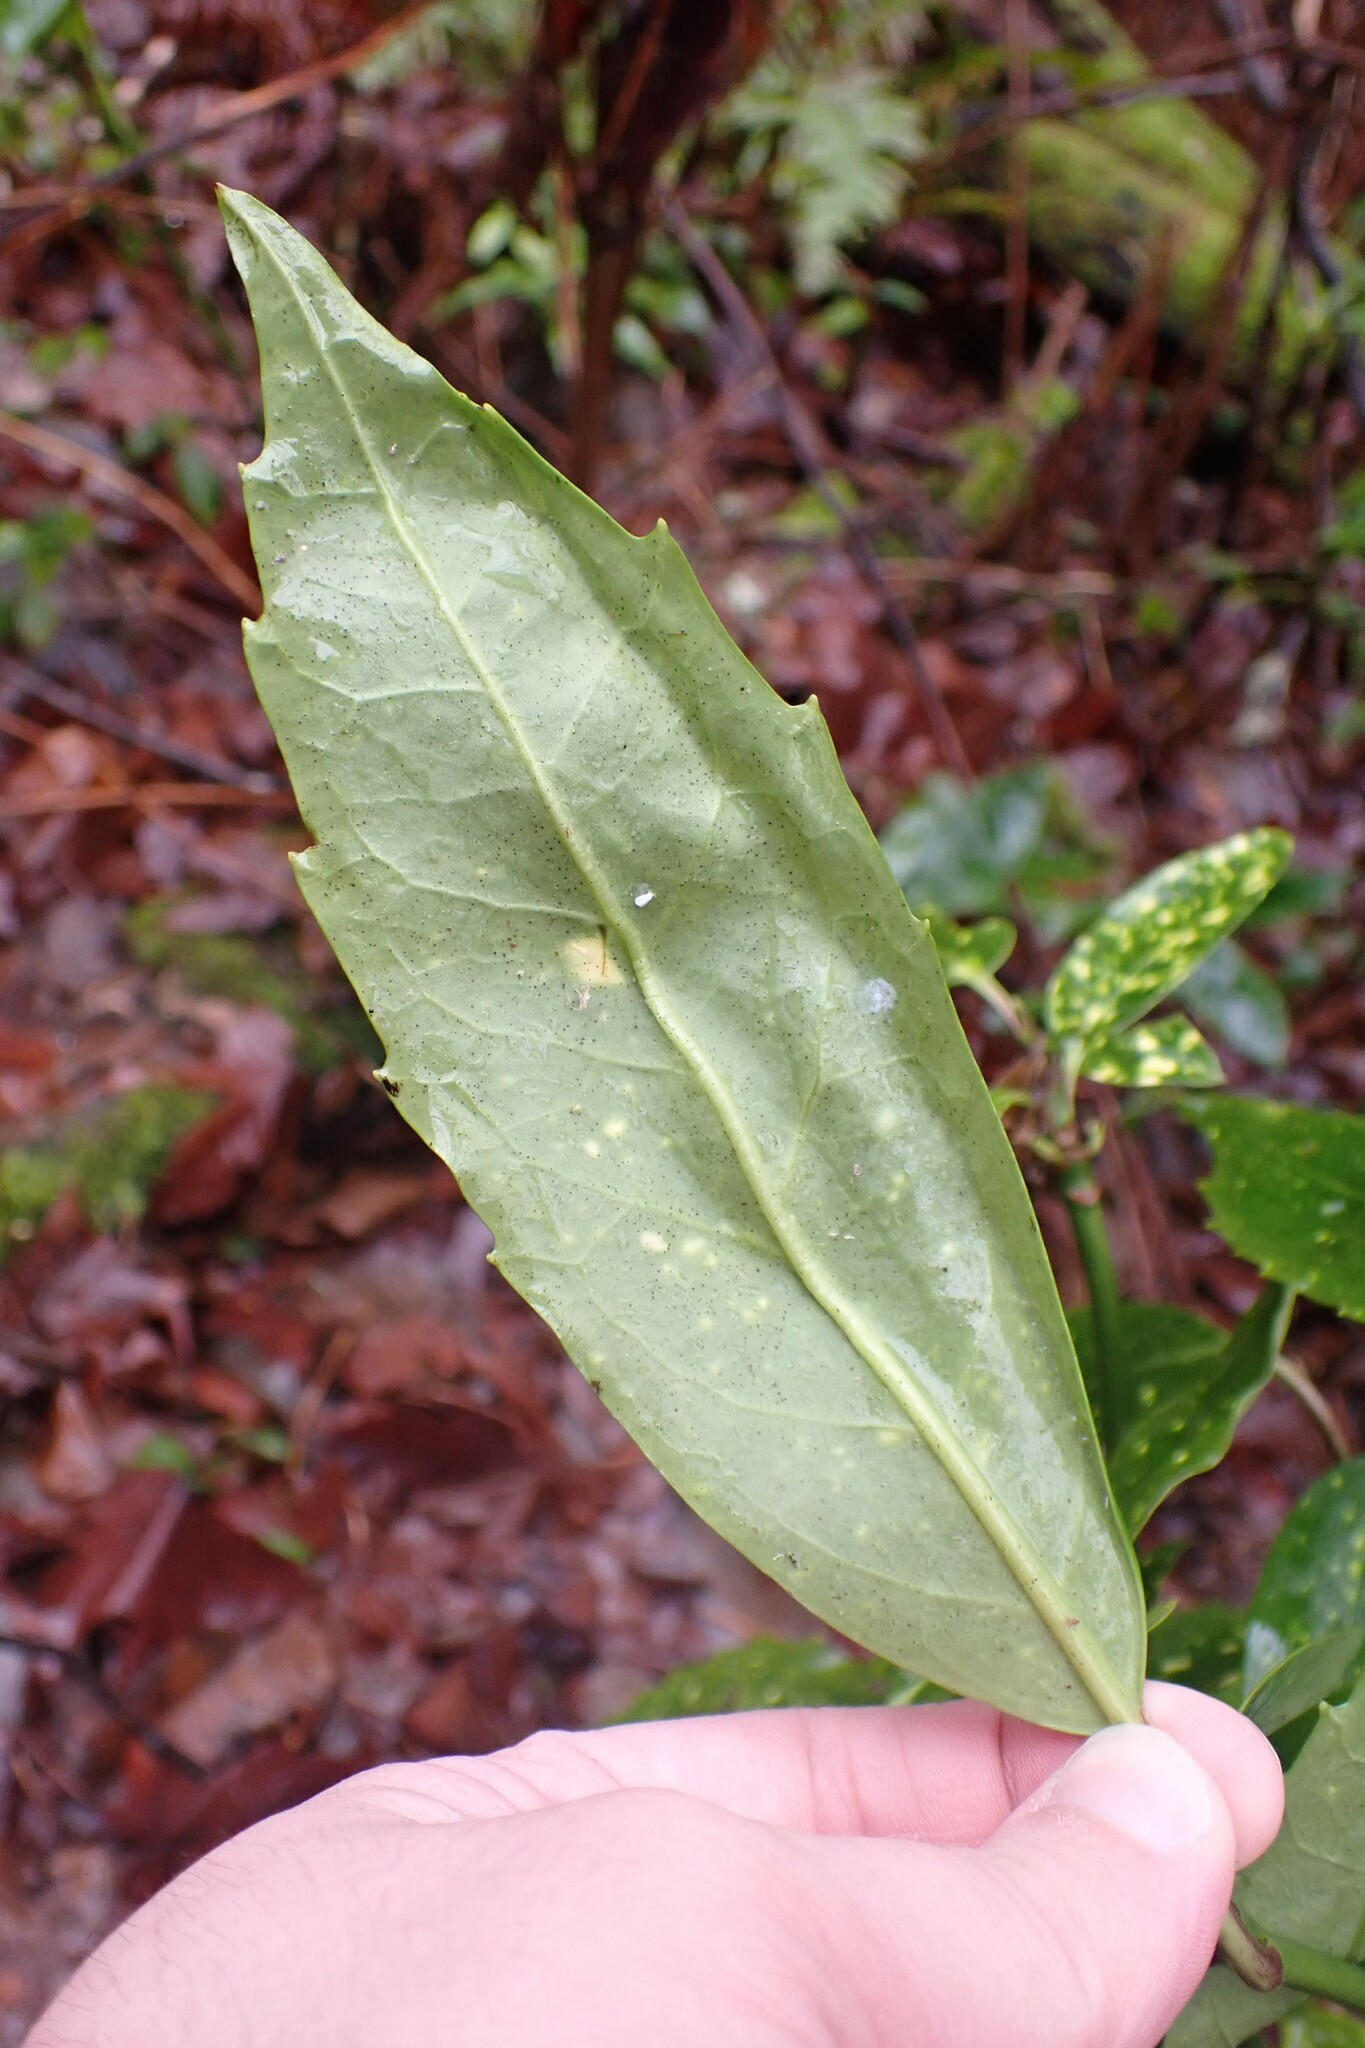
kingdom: Plantae
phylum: Tracheophyta
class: Magnoliopsida
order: Garryales
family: Garryaceae
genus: Aucuba
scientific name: Aucuba japonica
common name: Spotted-laurel
